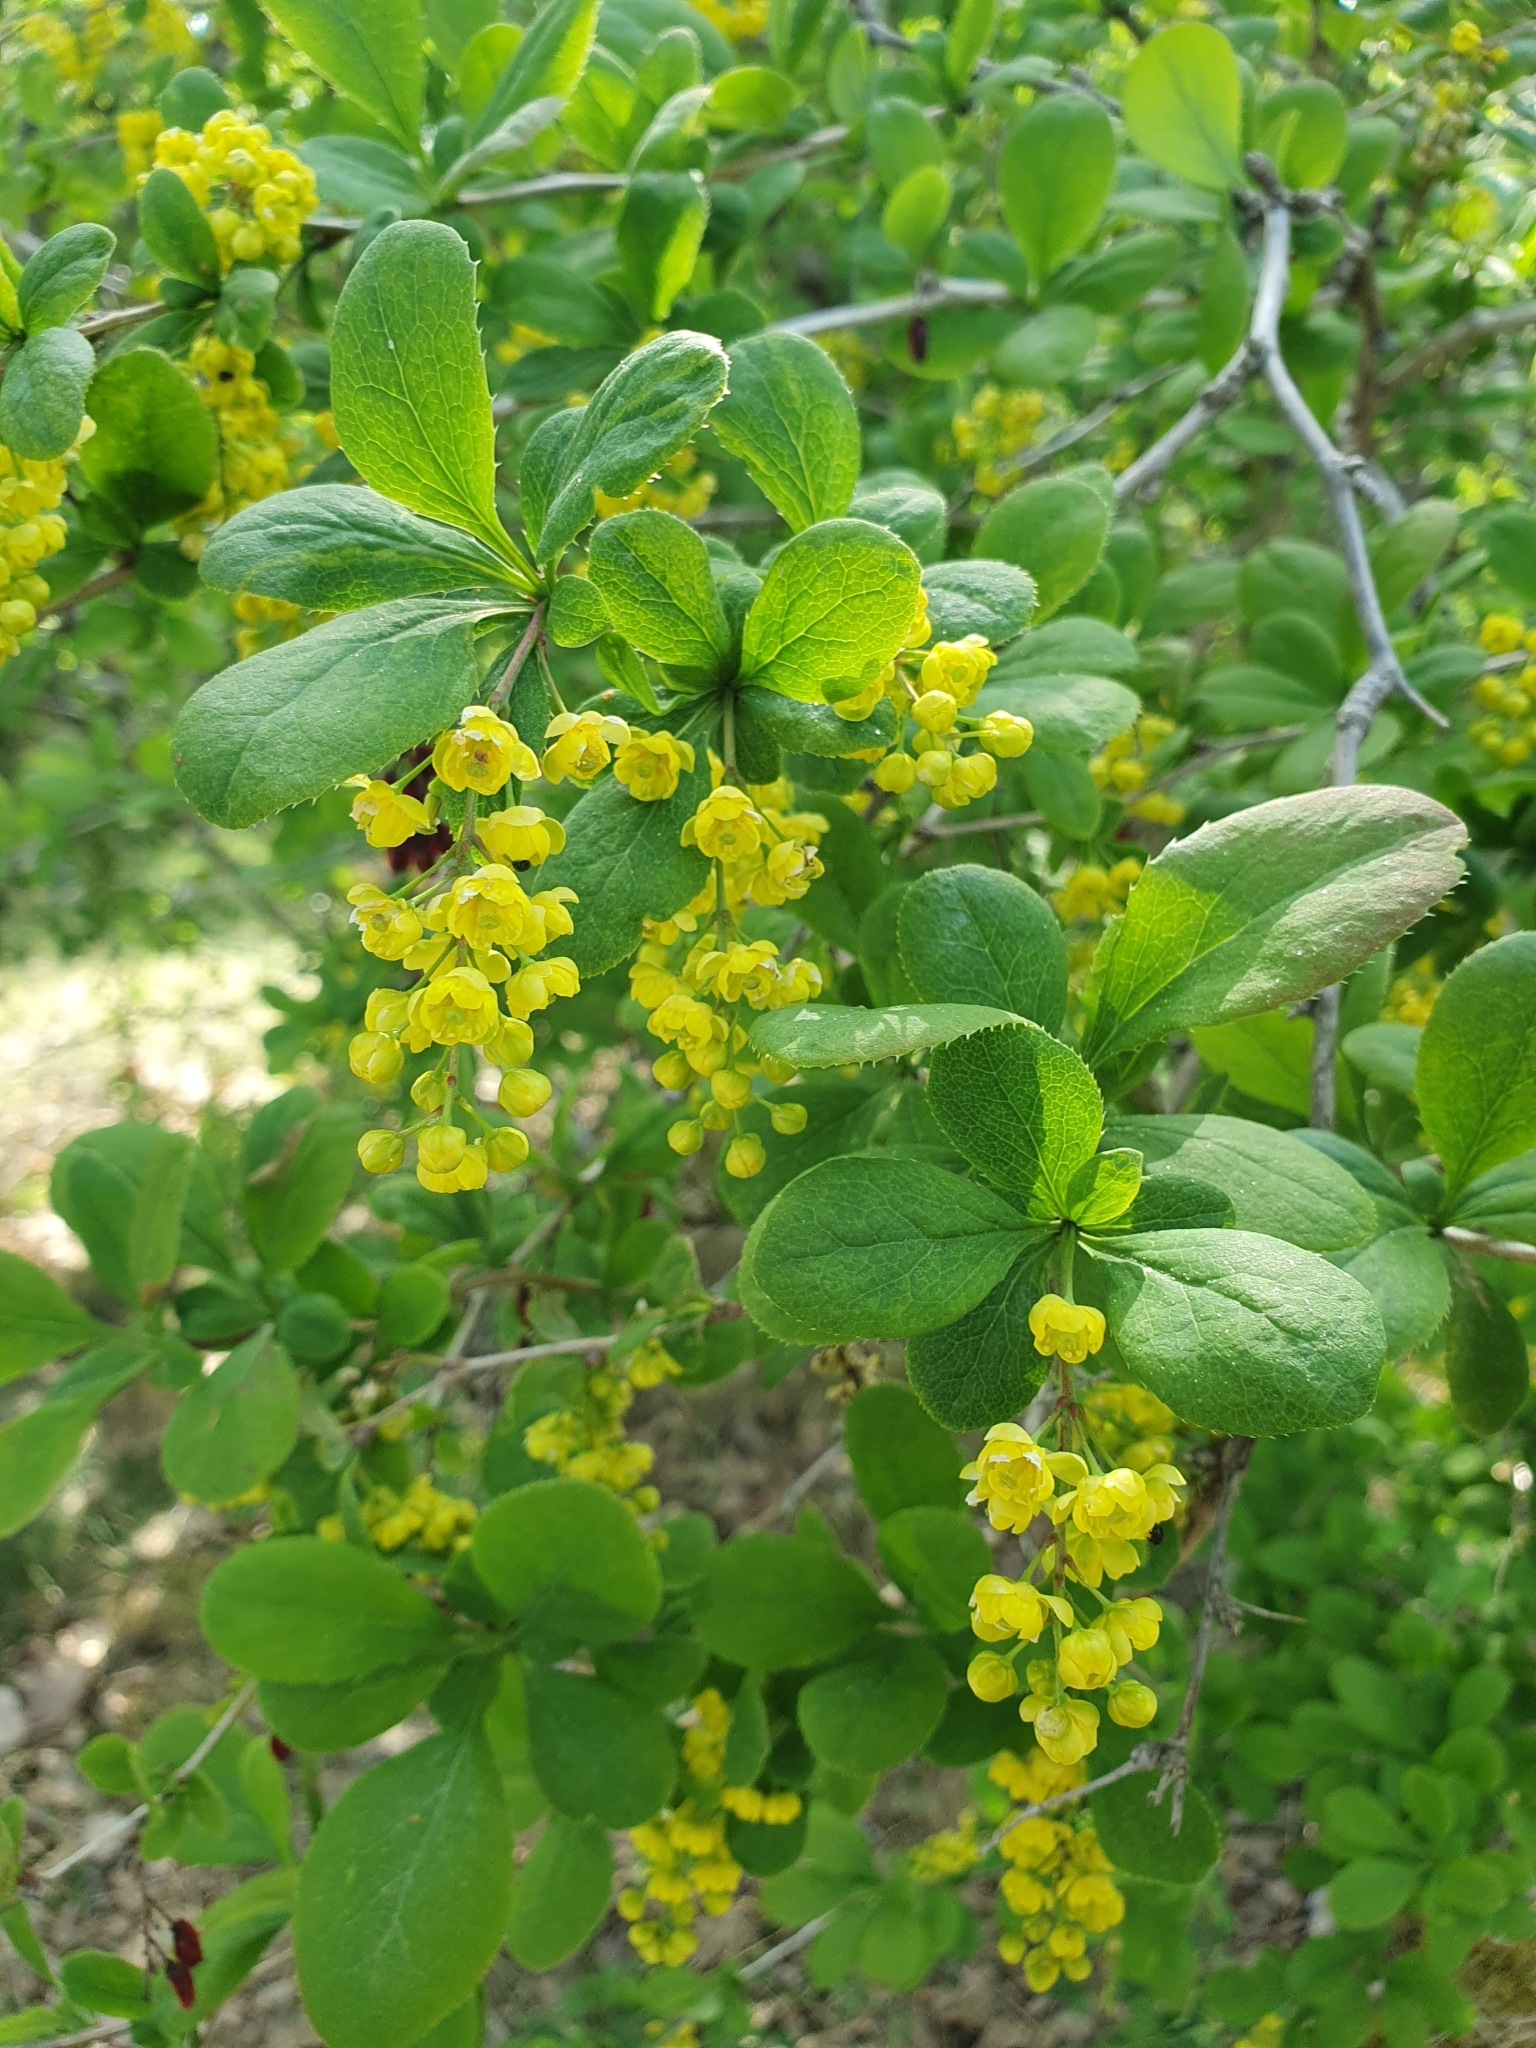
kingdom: Plantae
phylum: Tracheophyta
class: Magnoliopsida
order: Ranunculales
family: Berberidaceae
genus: Berberis
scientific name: Berberis vulgaris
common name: Barberry
